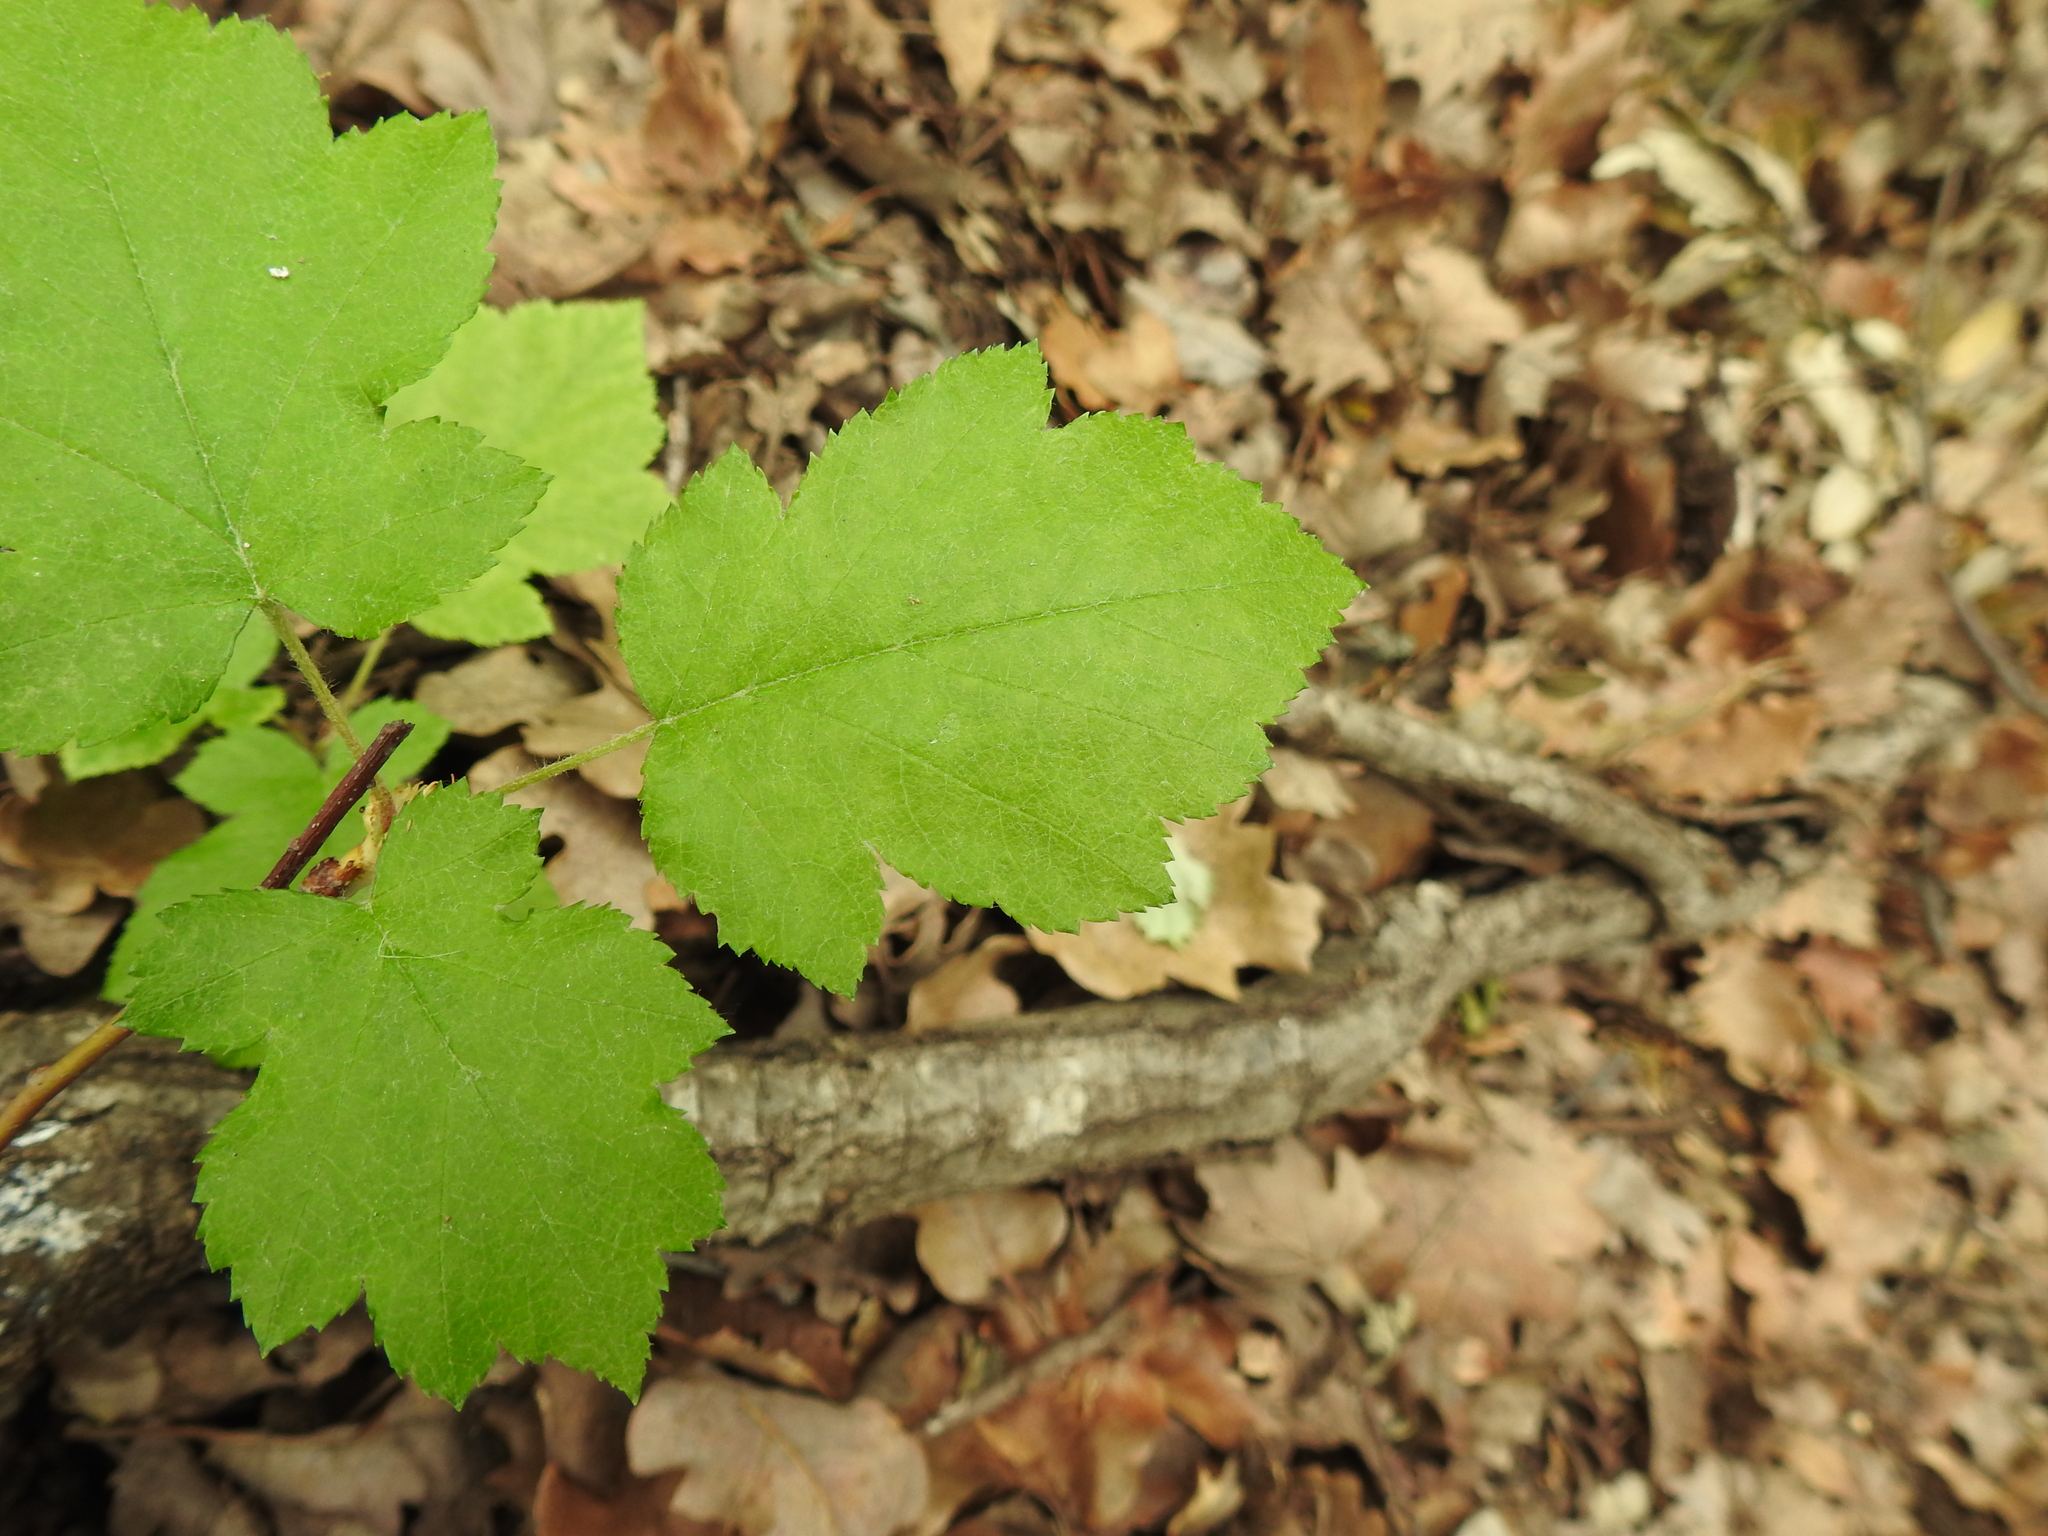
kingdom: Plantae
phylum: Tracheophyta
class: Magnoliopsida
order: Rosales
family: Rosaceae
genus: Torminalis
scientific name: Torminalis glaberrima
